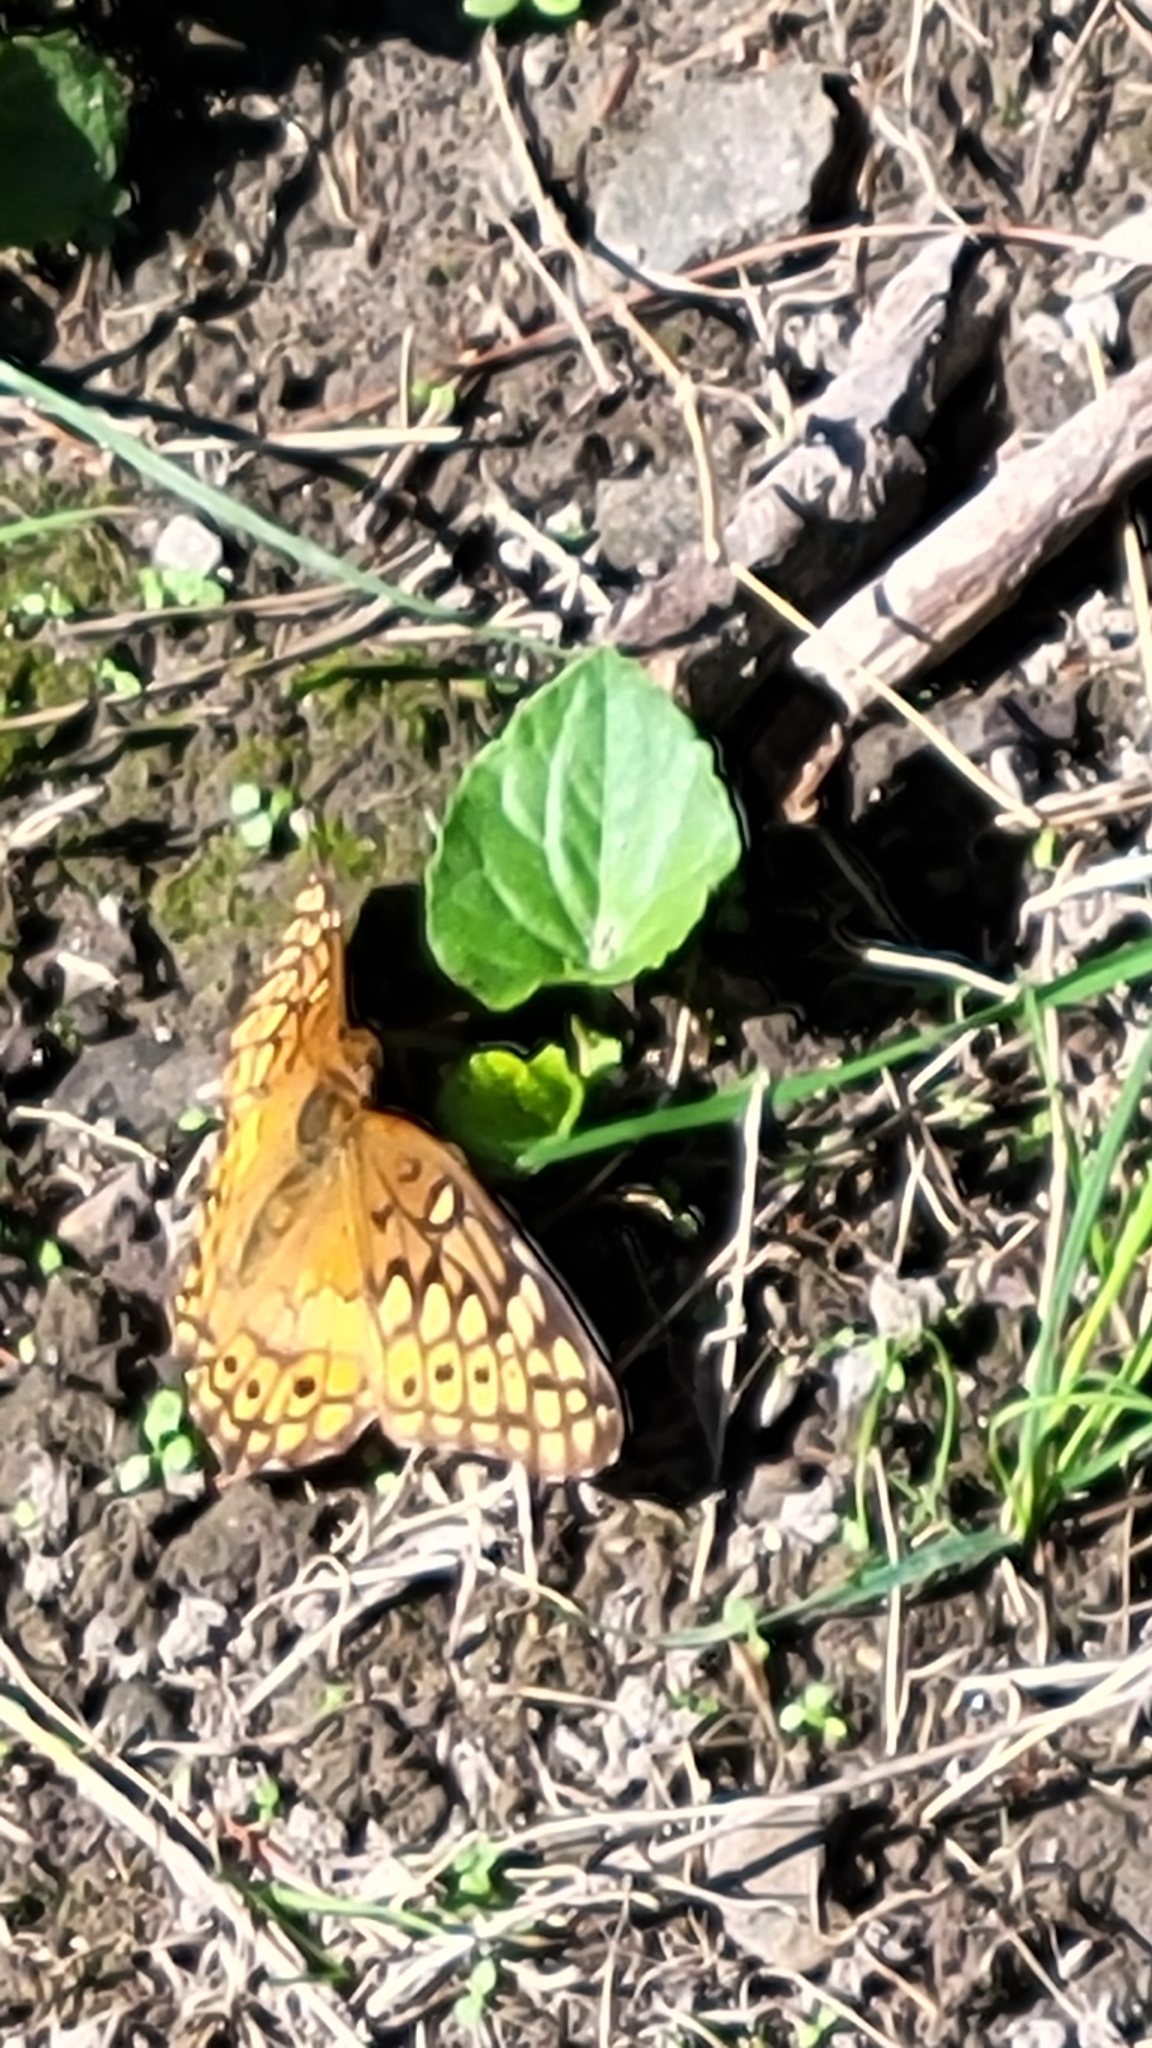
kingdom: Animalia
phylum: Arthropoda
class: Insecta
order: Lepidoptera
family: Nymphalidae
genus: Euptoieta
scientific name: Euptoieta claudia
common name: Variegated fritillary
